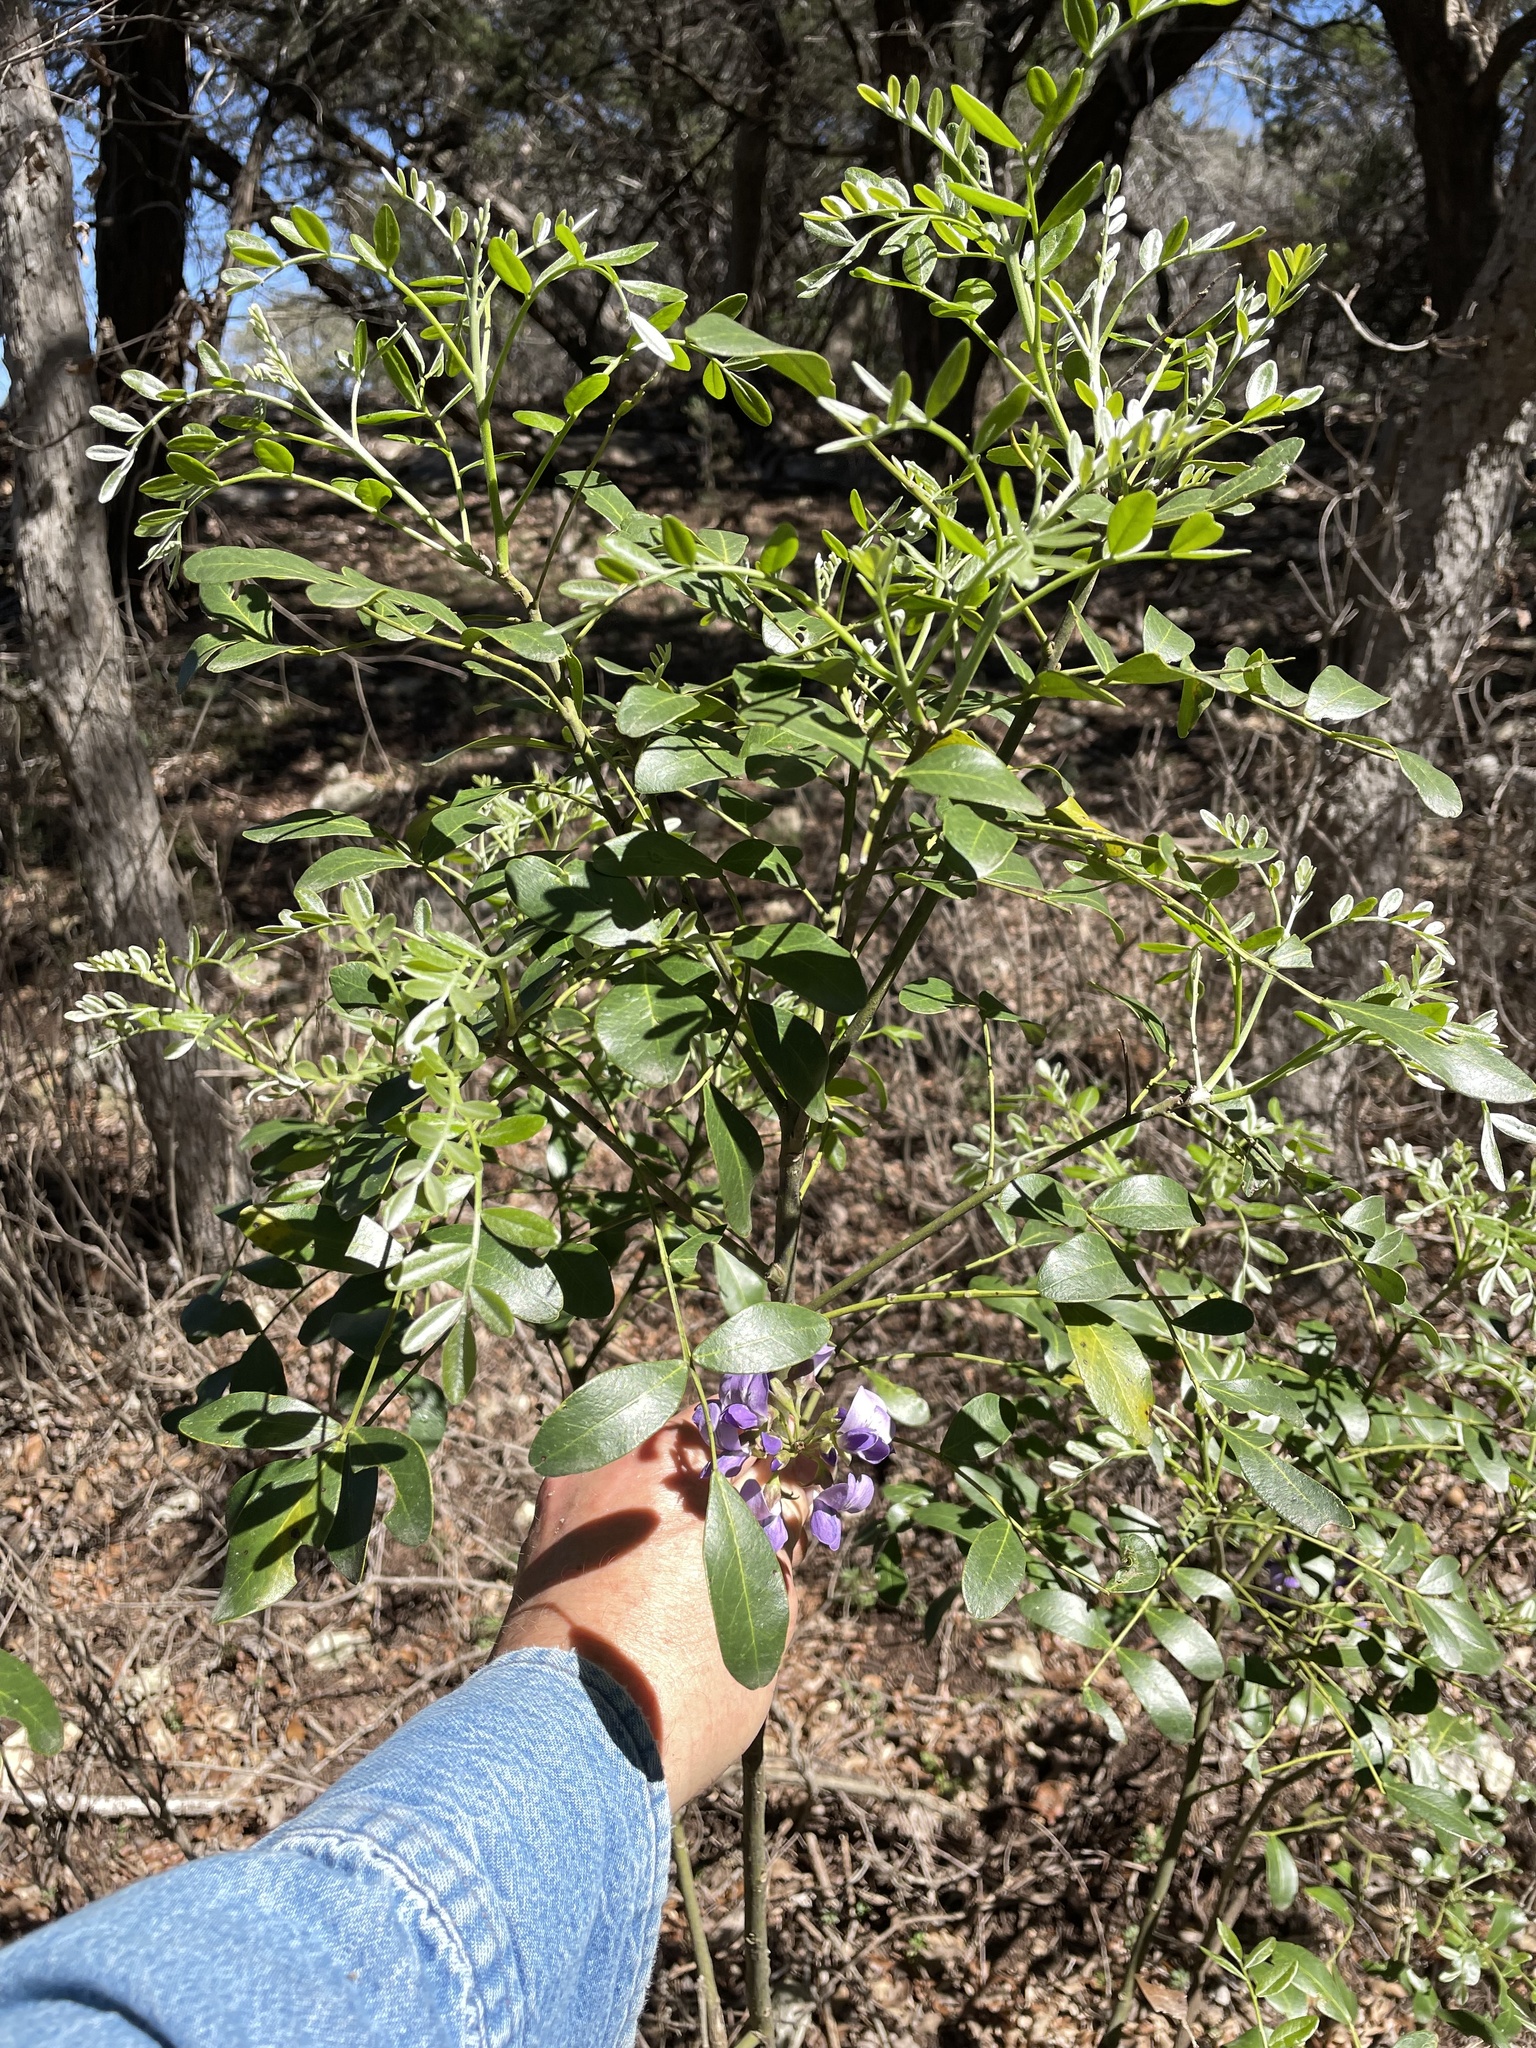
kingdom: Plantae
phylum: Tracheophyta
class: Magnoliopsida
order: Fabales
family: Fabaceae
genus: Dermatophyllum
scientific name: Dermatophyllum secundiflorum
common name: Texas-mountain-laurel
